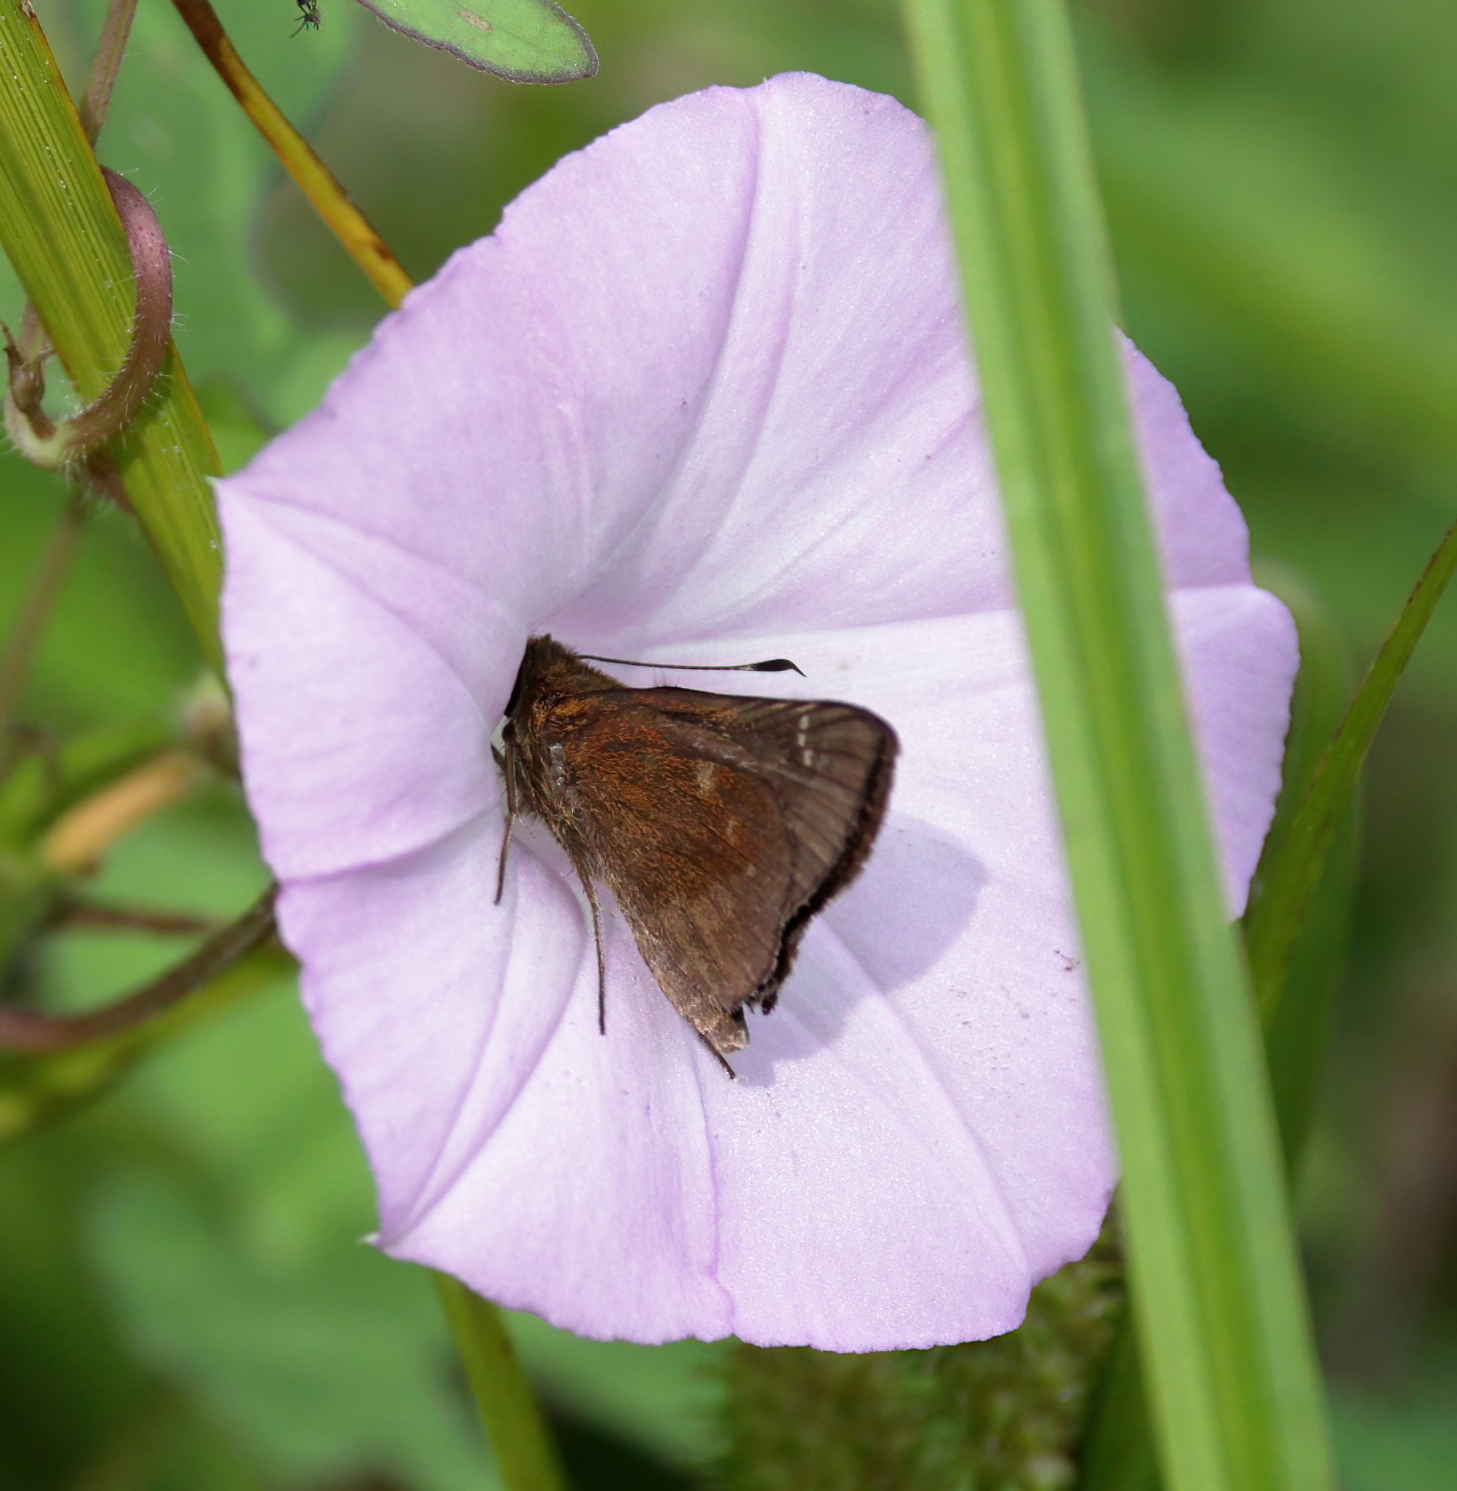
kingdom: Animalia
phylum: Arthropoda
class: Insecta
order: Lepidoptera
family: Hesperiidae
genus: Lerema
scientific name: Lerema accius
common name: Clouded skipper
